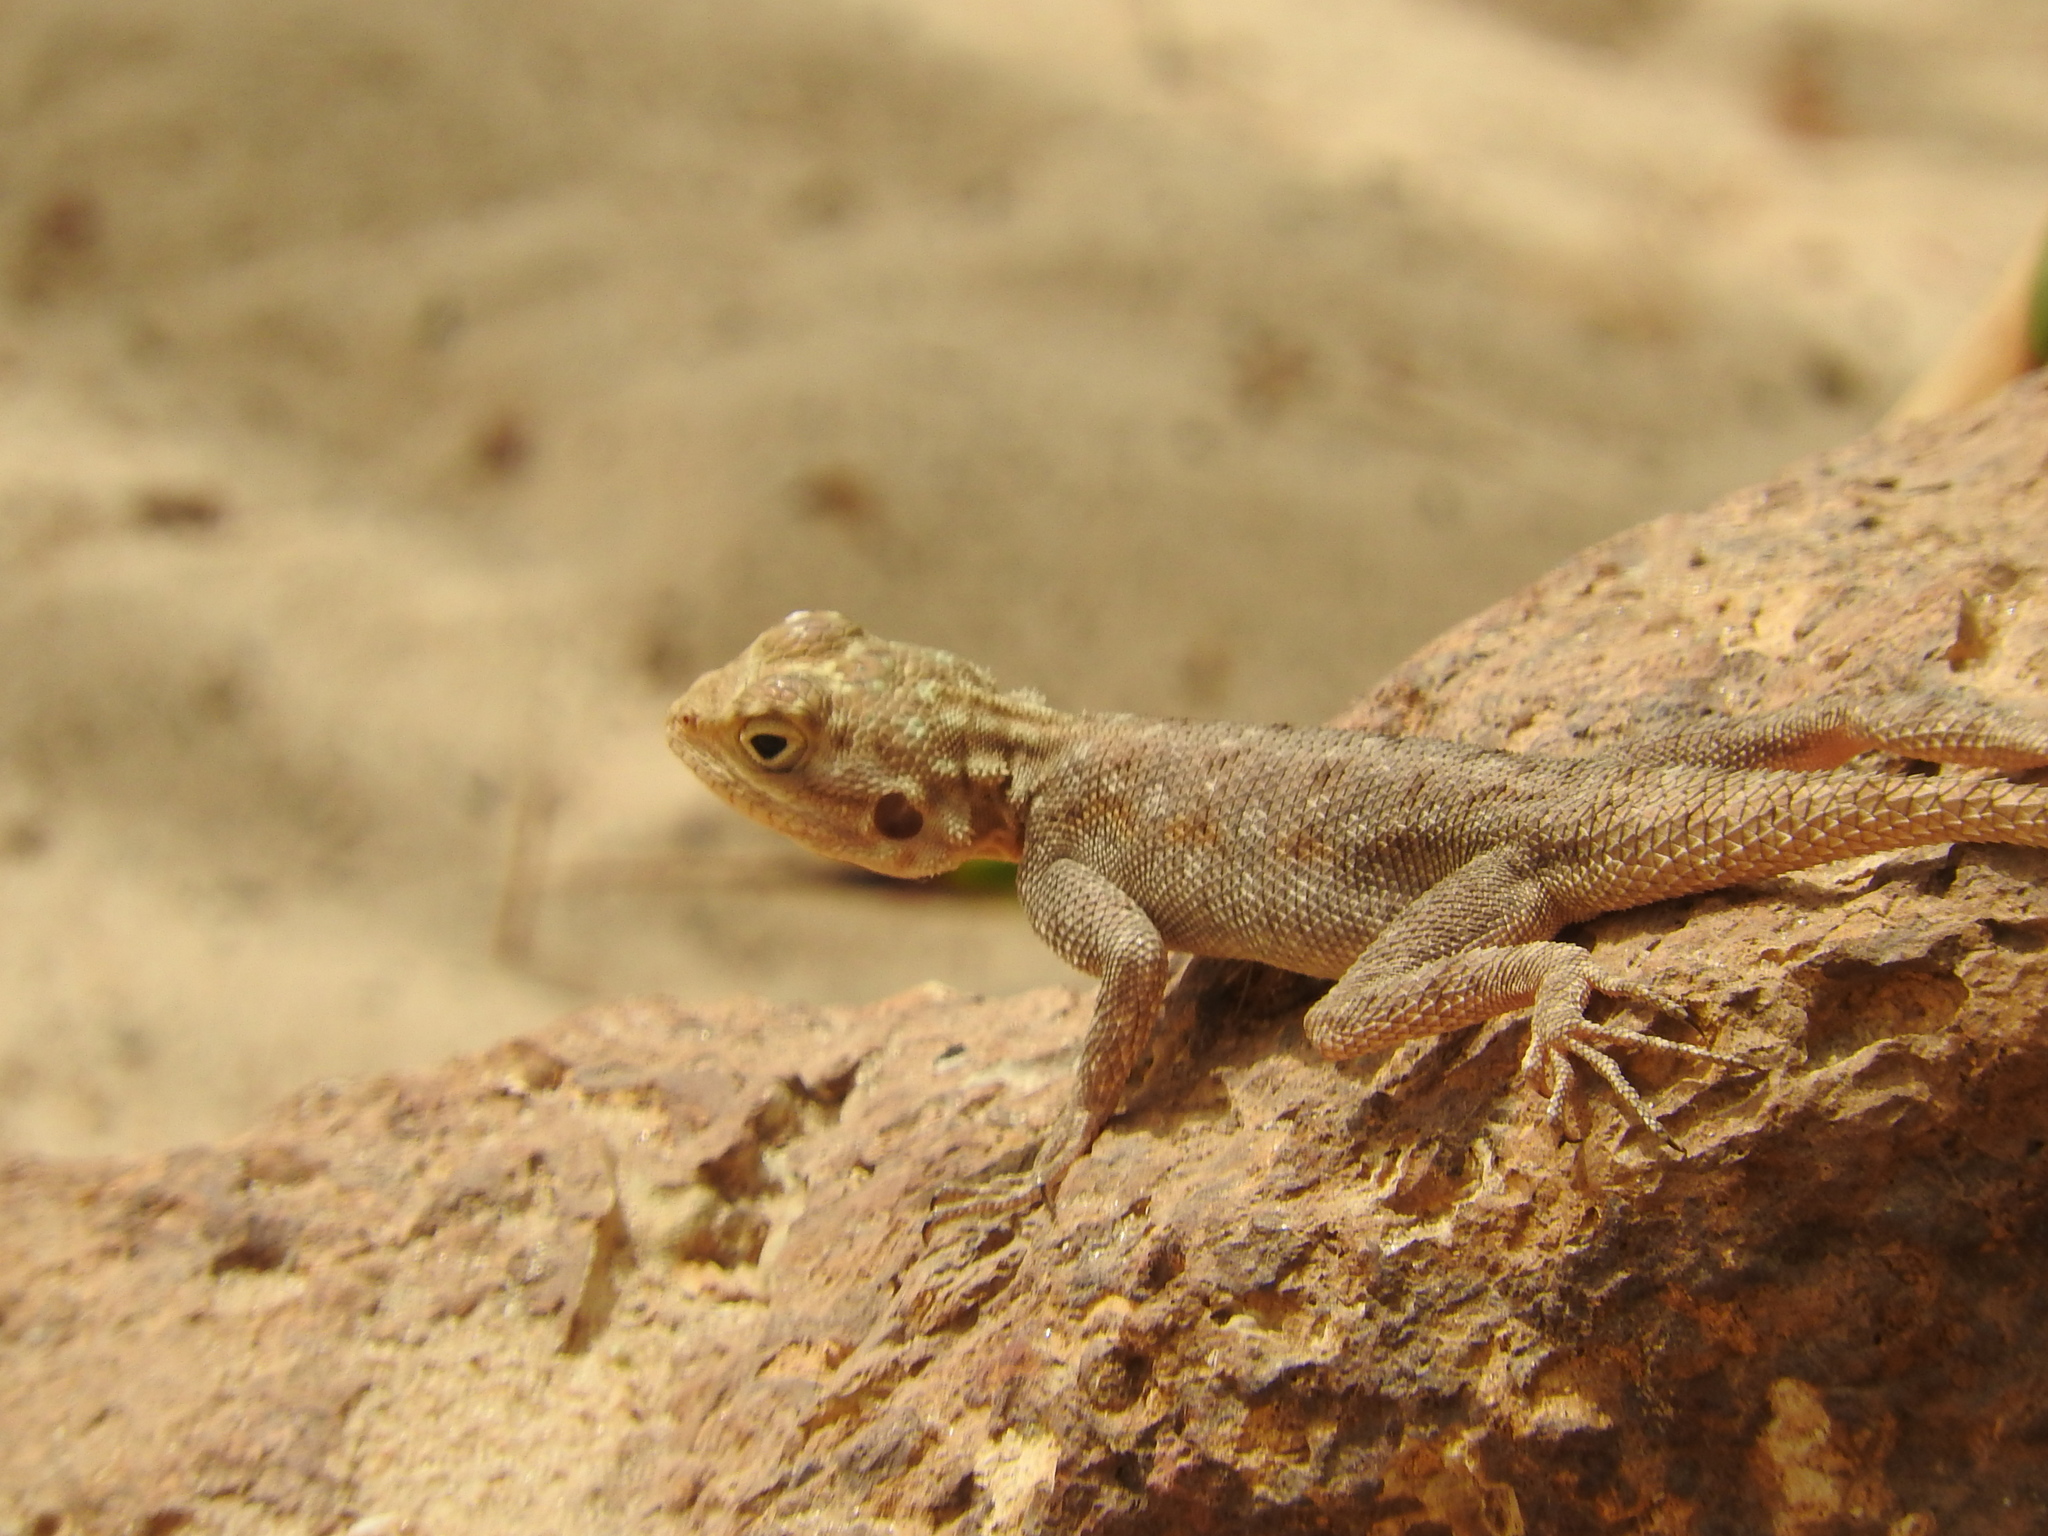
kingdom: Animalia
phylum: Chordata
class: Squamata
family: Agamidae
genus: Agama
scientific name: Agama agama
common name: Common agama
